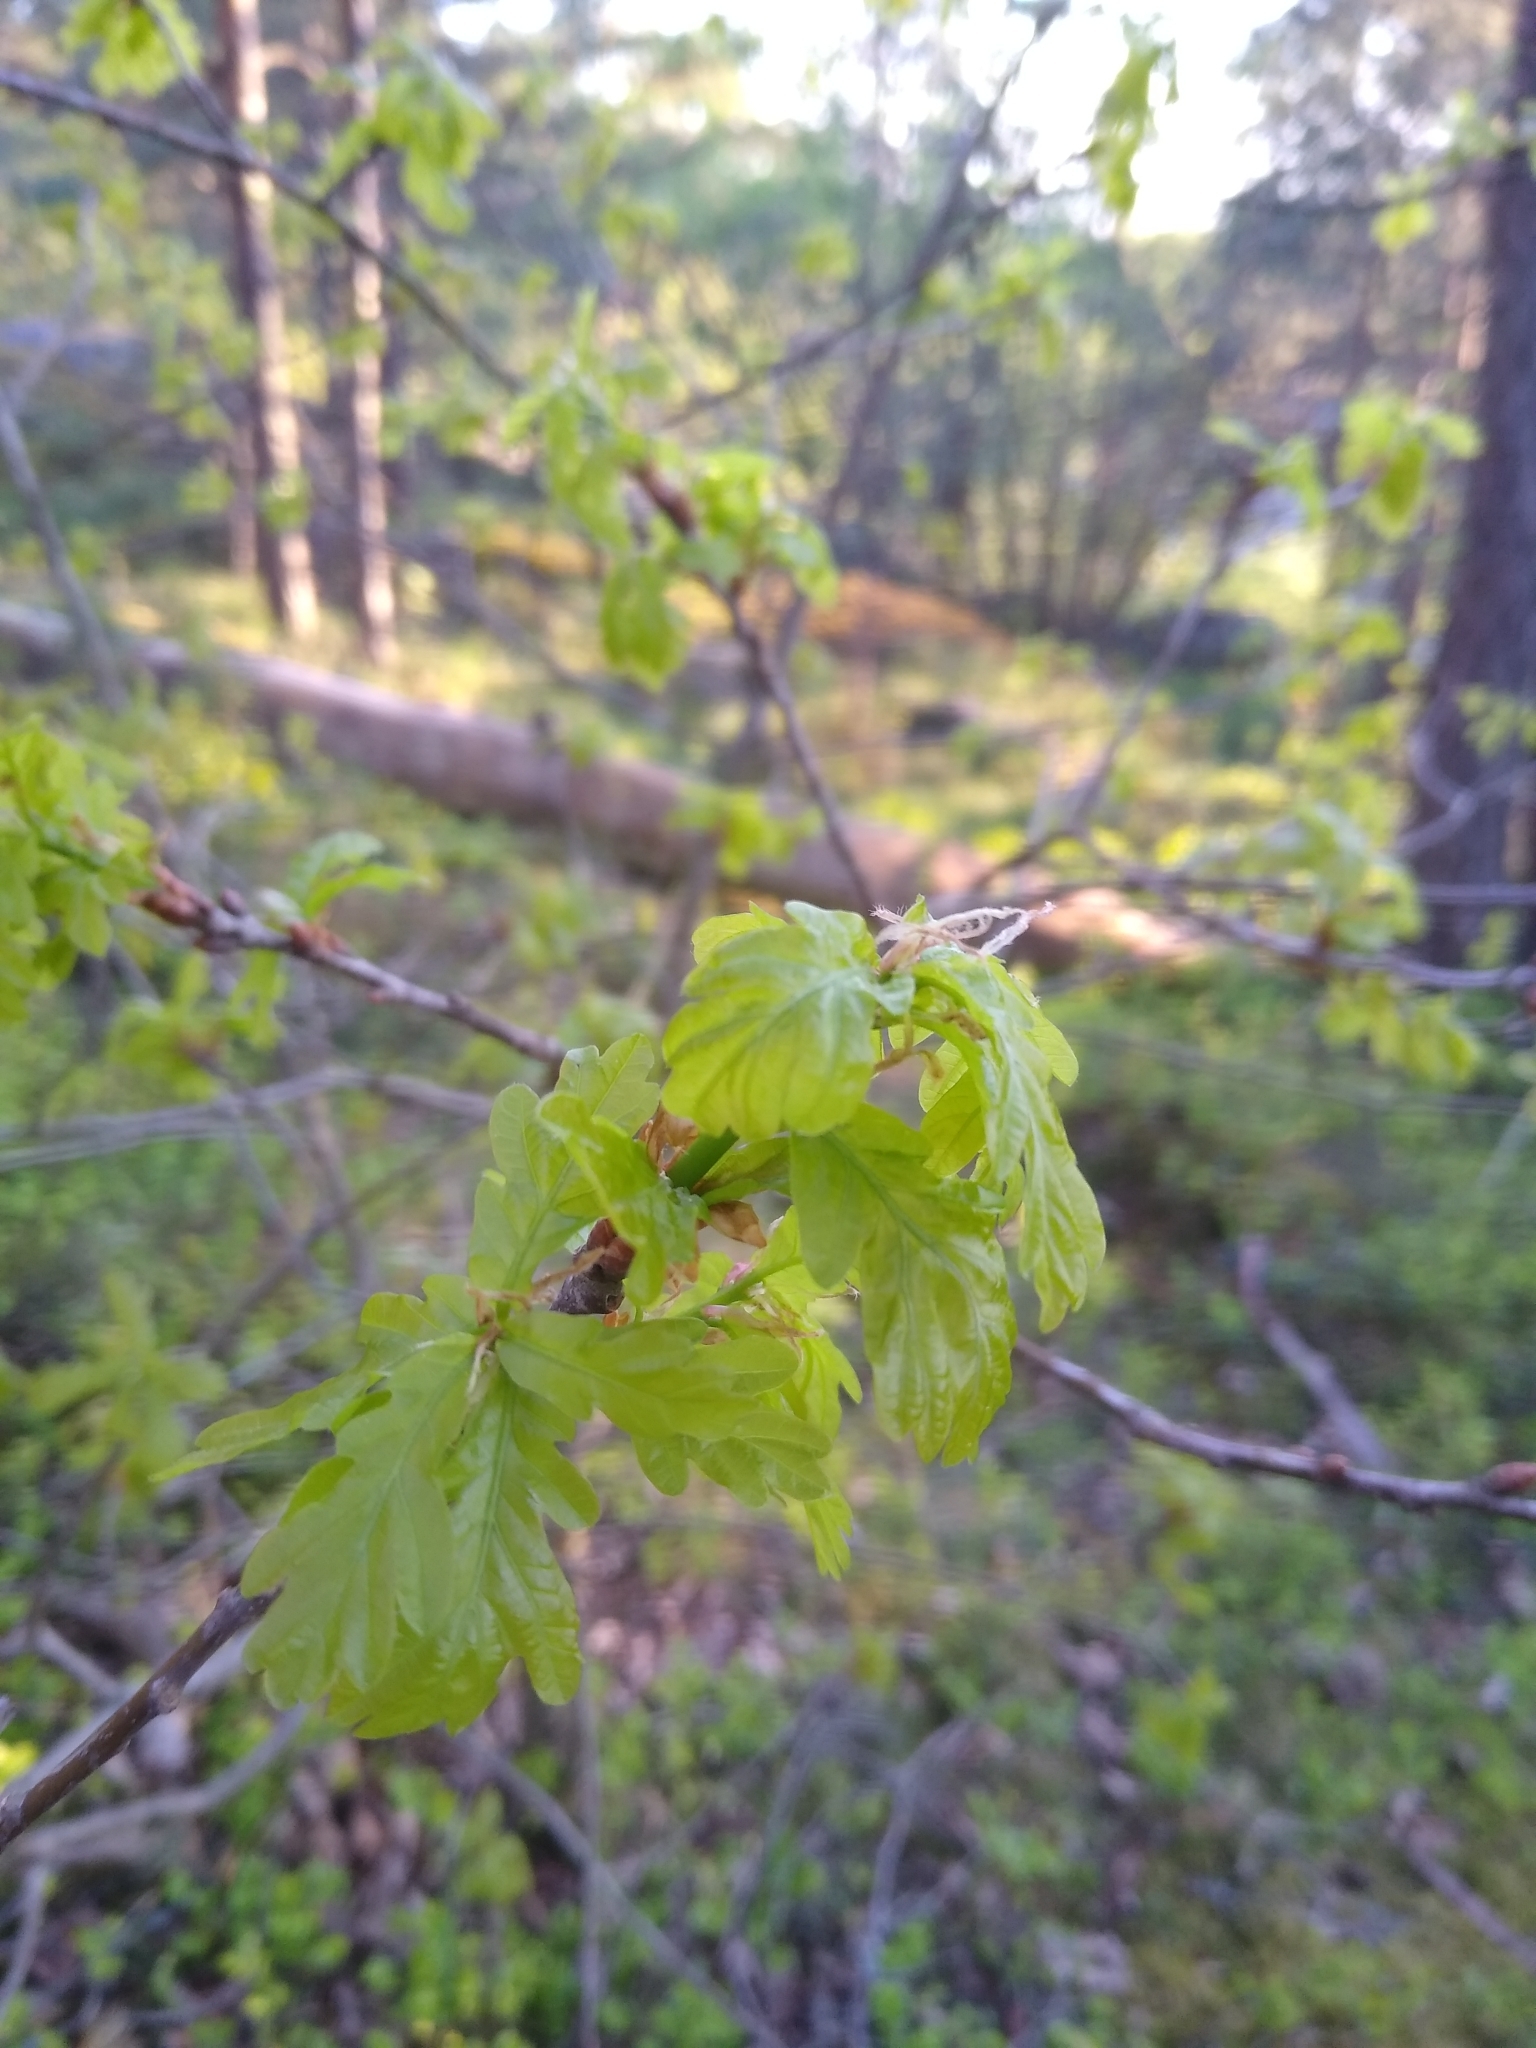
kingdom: Plantae
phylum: Tracheophyta
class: Magnoliopsida
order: Fagales
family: Fagaceae
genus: Quercus
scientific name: Quercus robur
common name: Pedunculate oak
